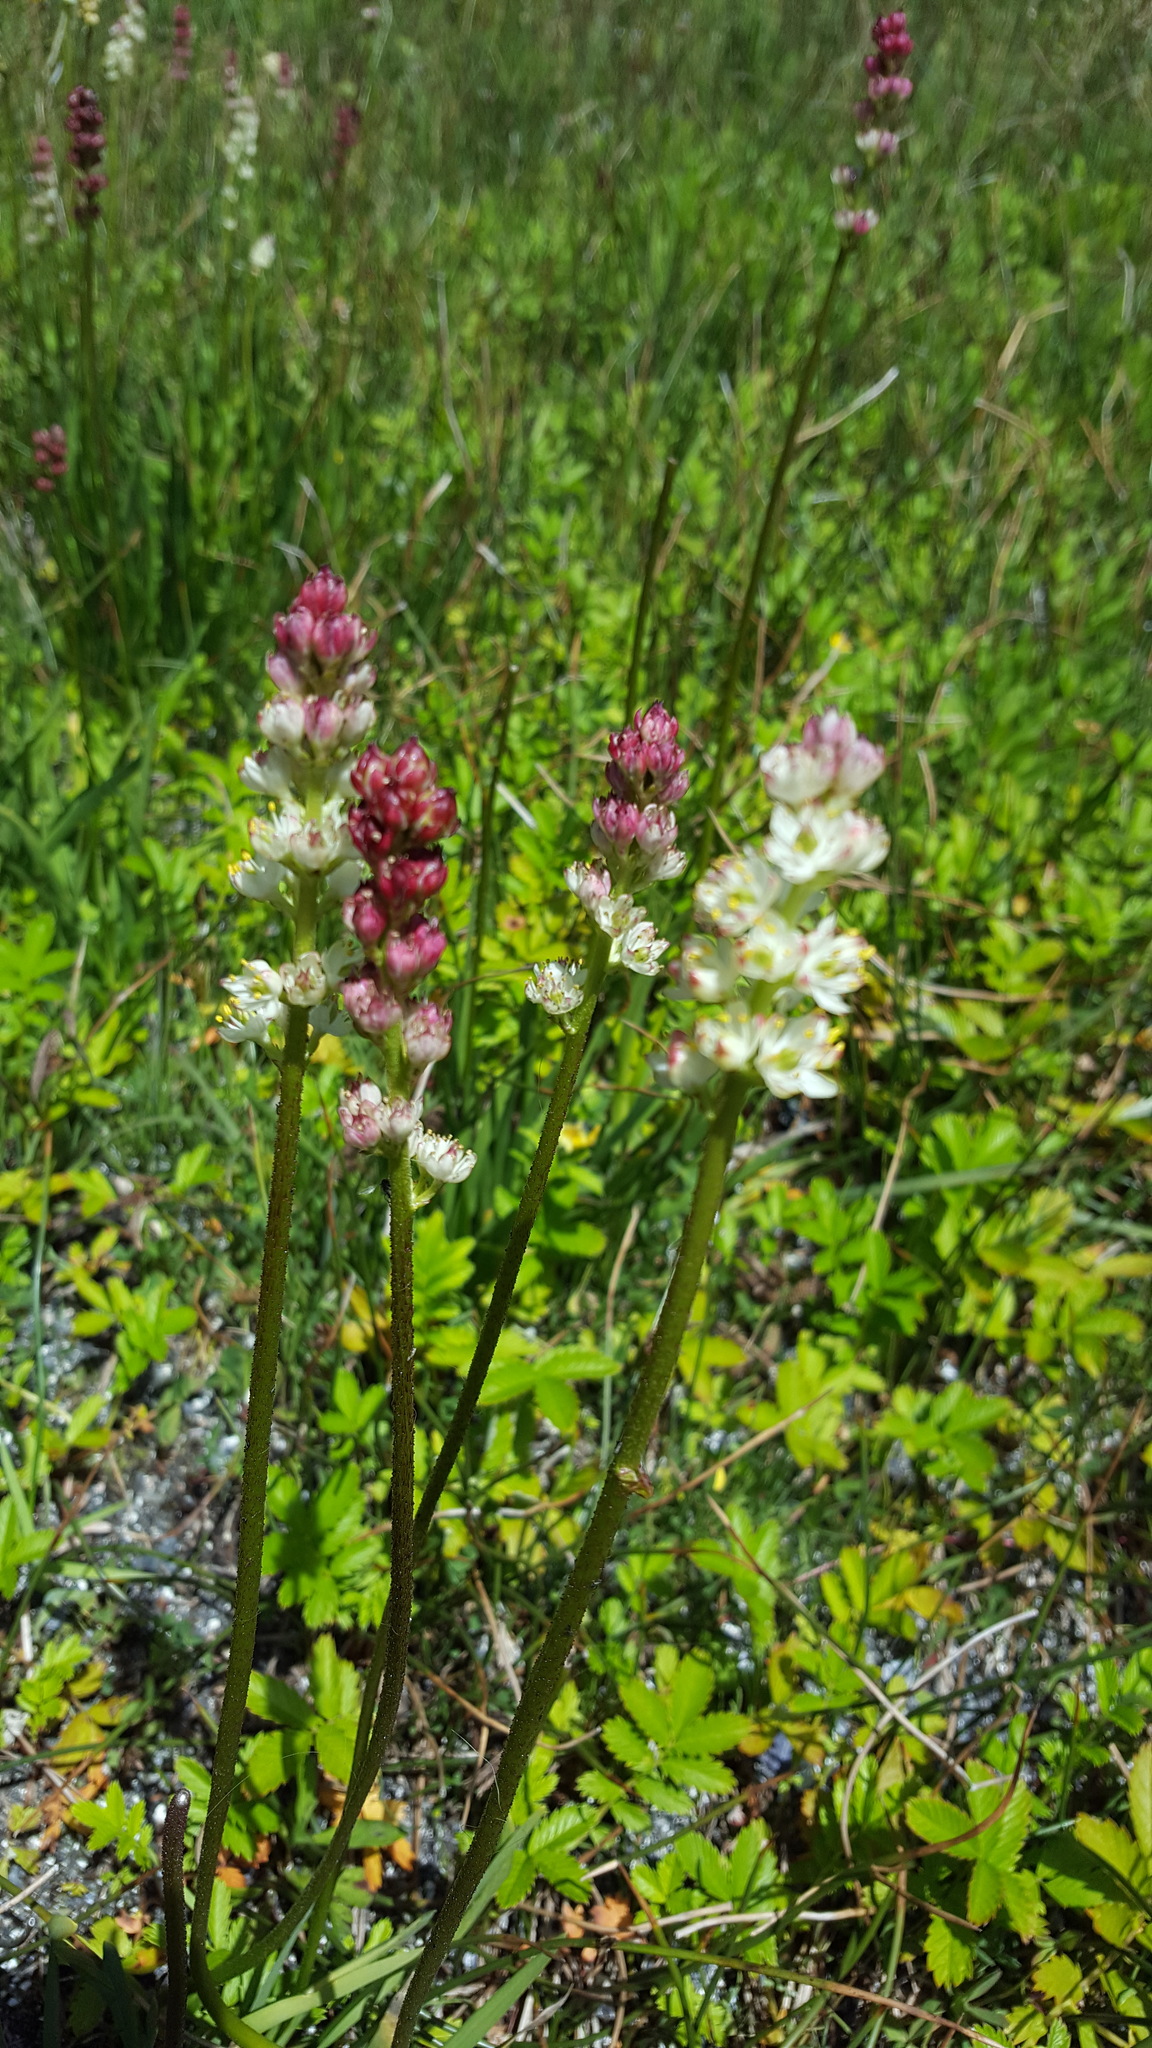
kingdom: Plantae
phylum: Tracheophyta
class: Liliopsida
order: Alismatales
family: Tofieldiaceae
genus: Triantha
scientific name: Triantha glutinosa
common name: Glutinous tofieldia
